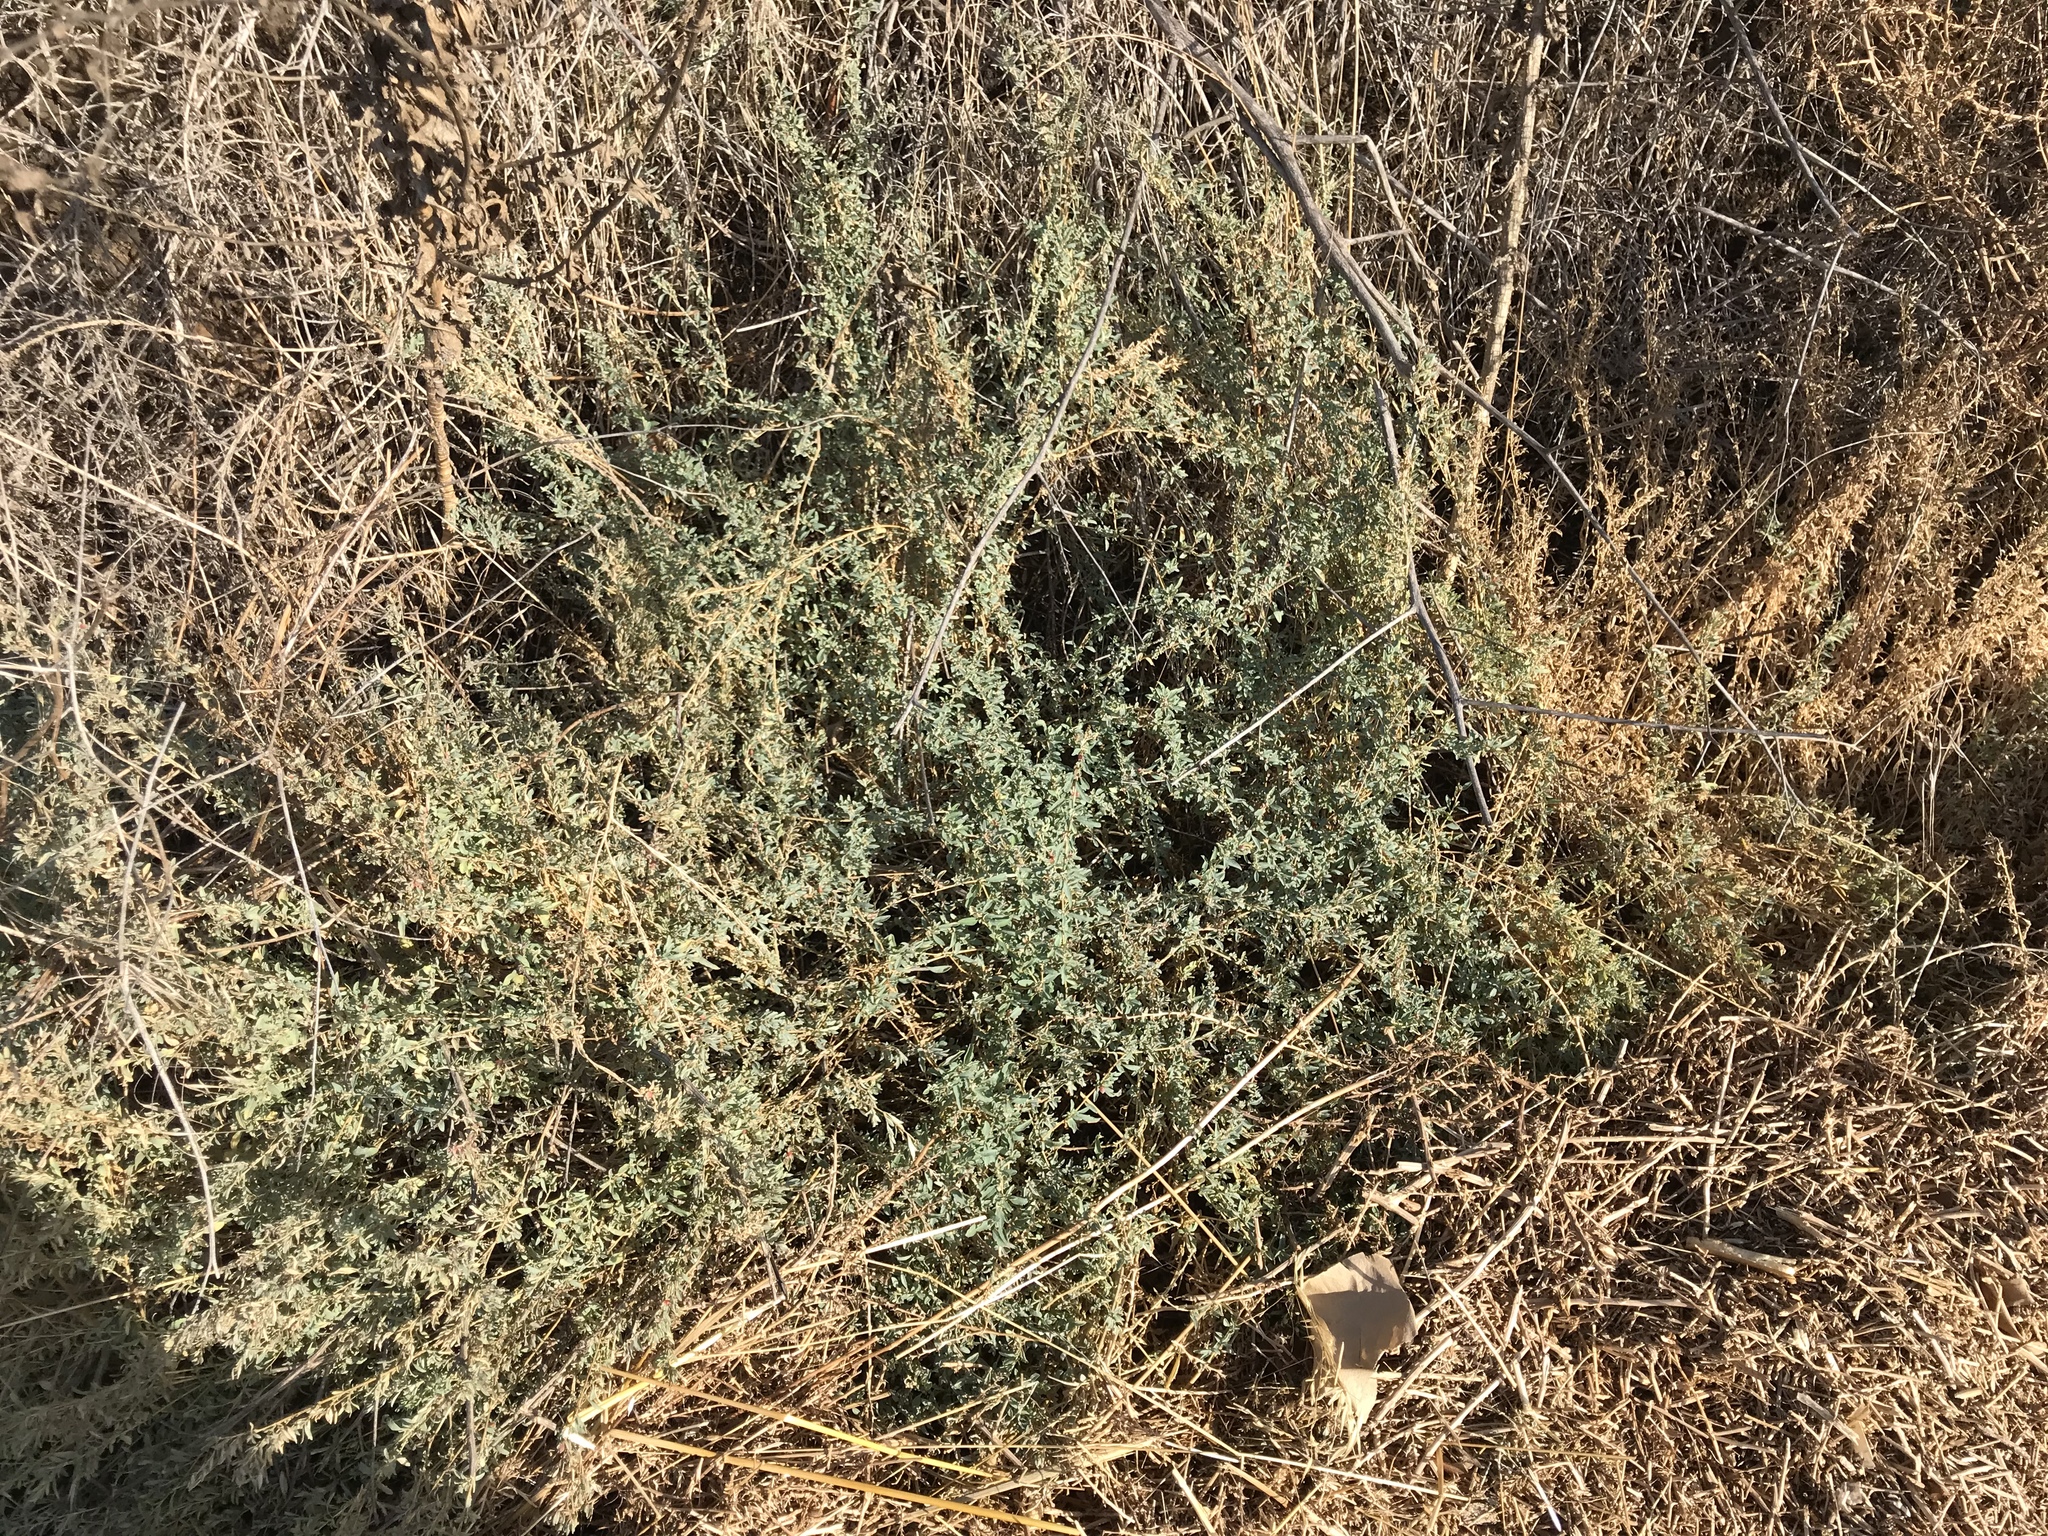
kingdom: Plantae
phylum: Tracheophyta
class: Magnoliopsida
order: Caryophyllales
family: Amaranthaceae
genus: Atriplex
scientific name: Atriplex semibaccata
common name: Australian saltbush
